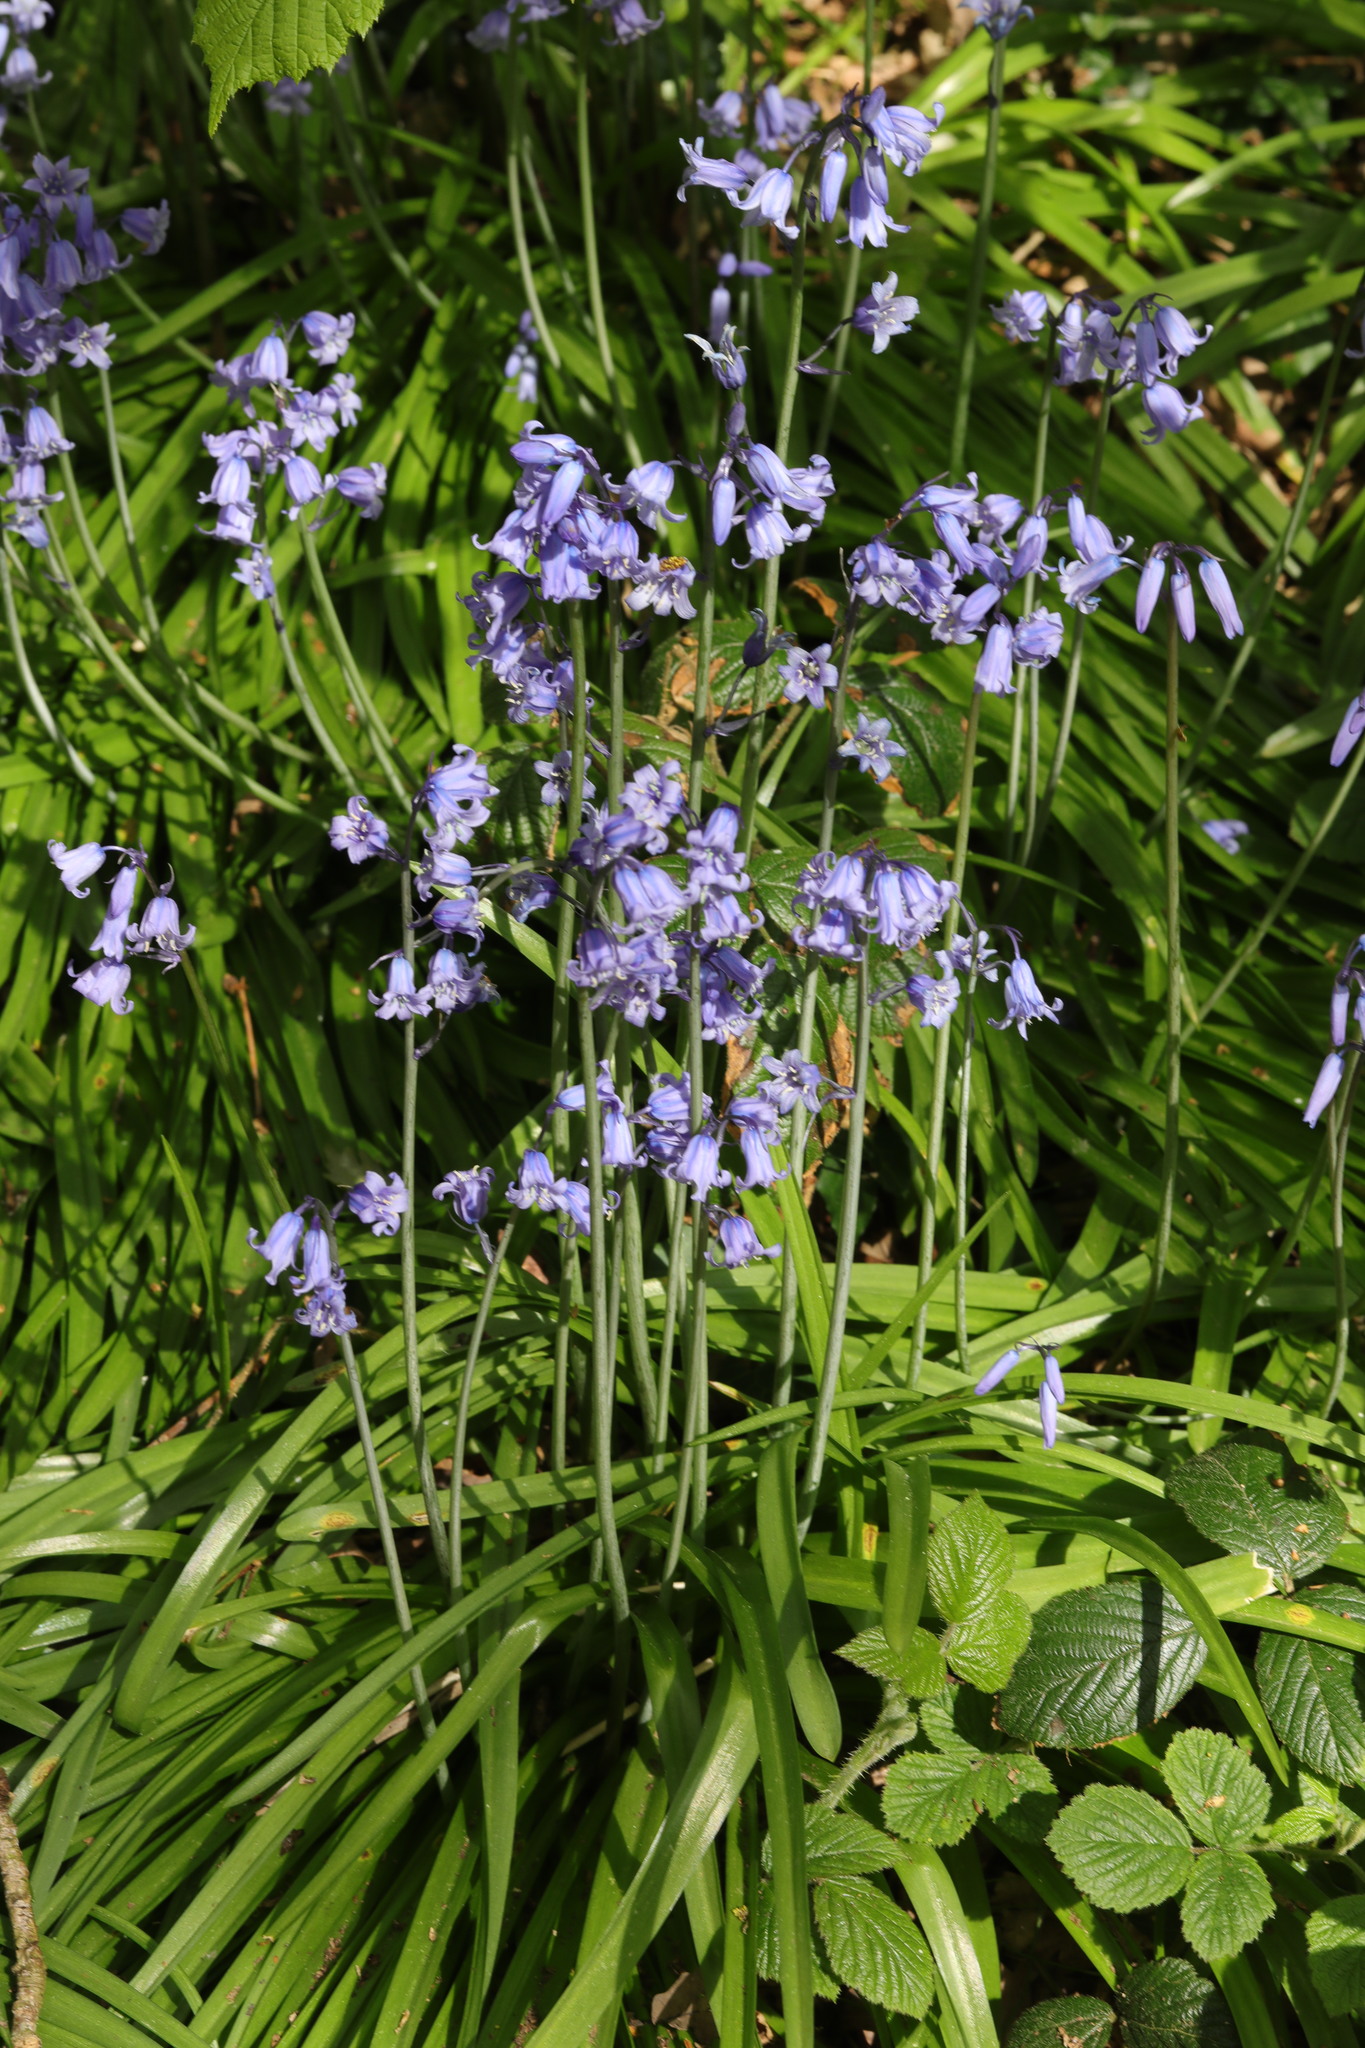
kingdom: Plantae
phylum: Tracheophyta
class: Liliopsida
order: Asparagales
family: Asparagaceae
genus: Hyacinthoides
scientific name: Hyacinthoides massartiana
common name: Hyacinthoides
